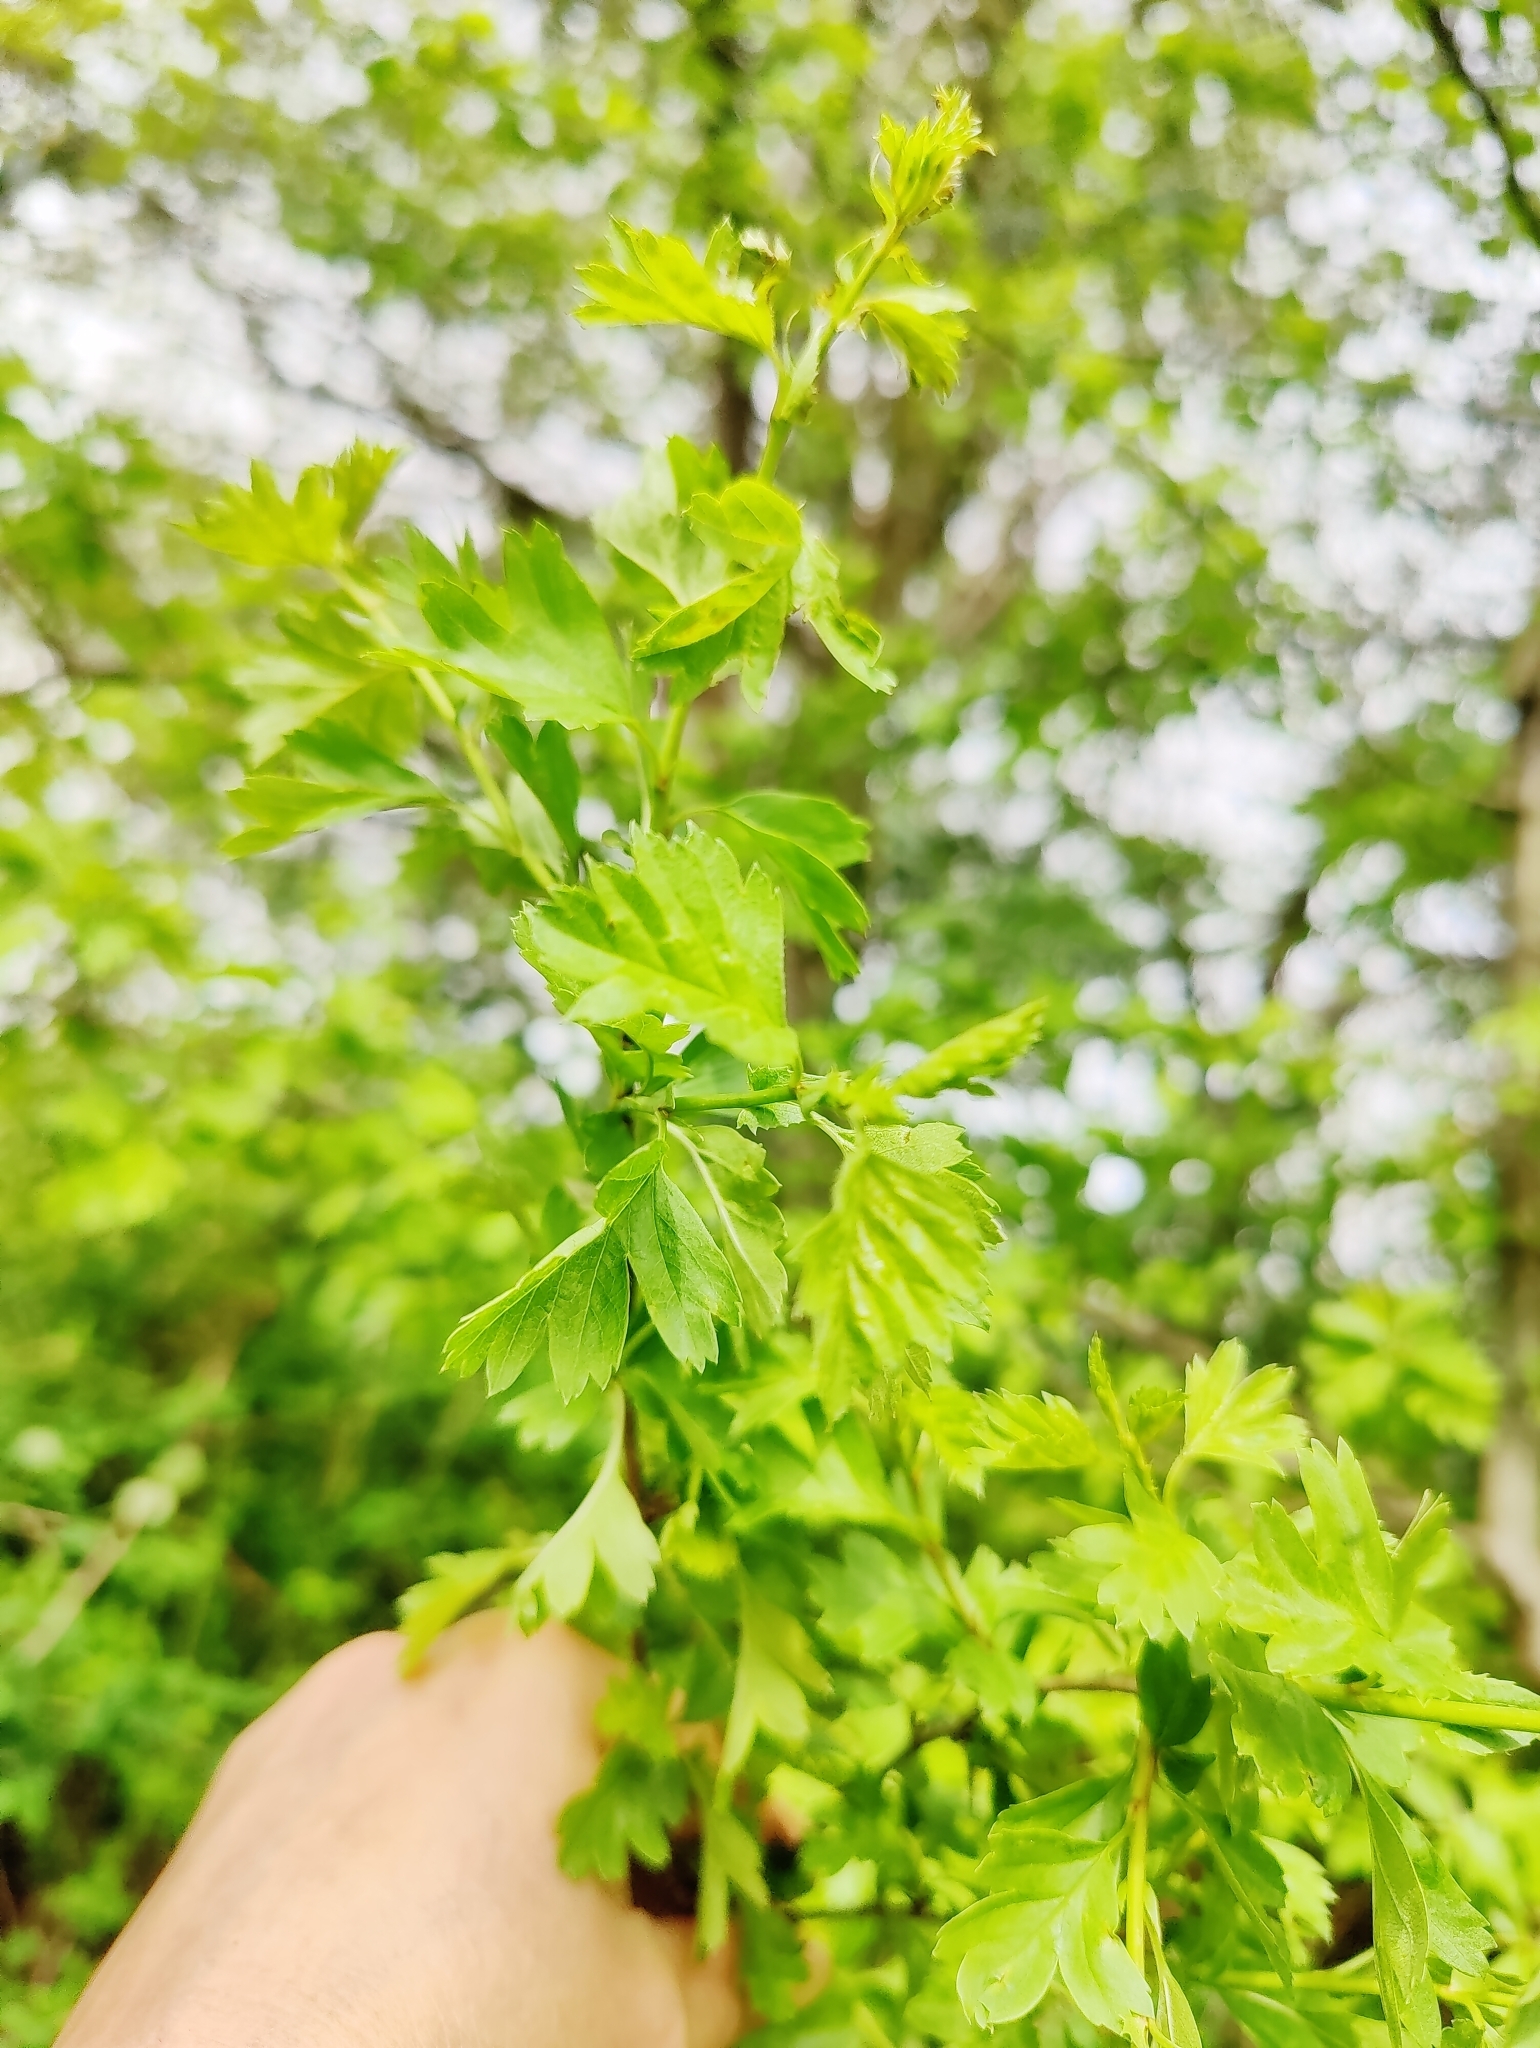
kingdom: Plantae
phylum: Tracheophyta
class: Magnoliopsida
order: Rosales
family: Rosaceae
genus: Crataegus
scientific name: Crataegus monogyna
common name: Hawthorn
